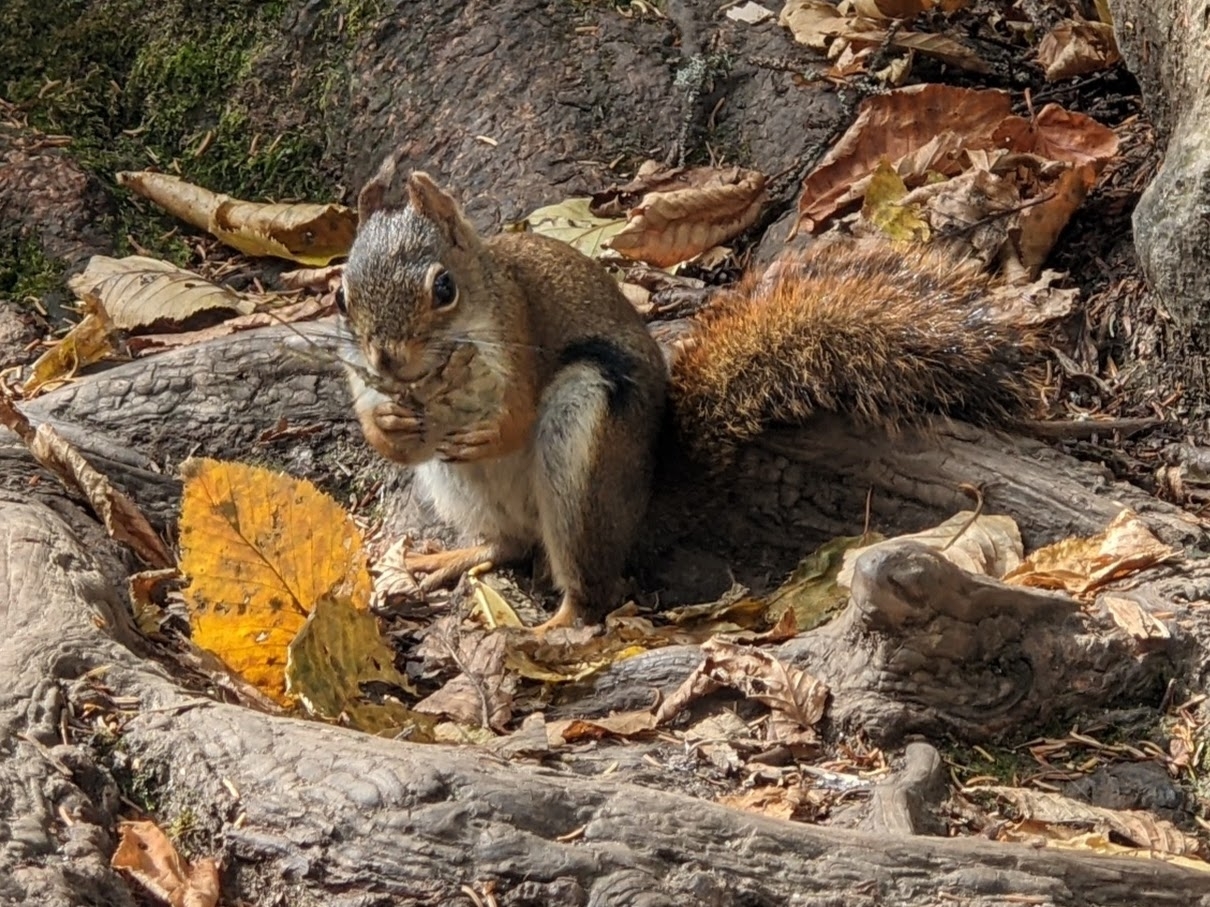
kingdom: Animalia
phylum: Chordata
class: Mammalia
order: Rodentia
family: Sciuridae
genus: Tamiasciurus
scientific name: Tamiasciurus hudsonicus
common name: Red squirrel
